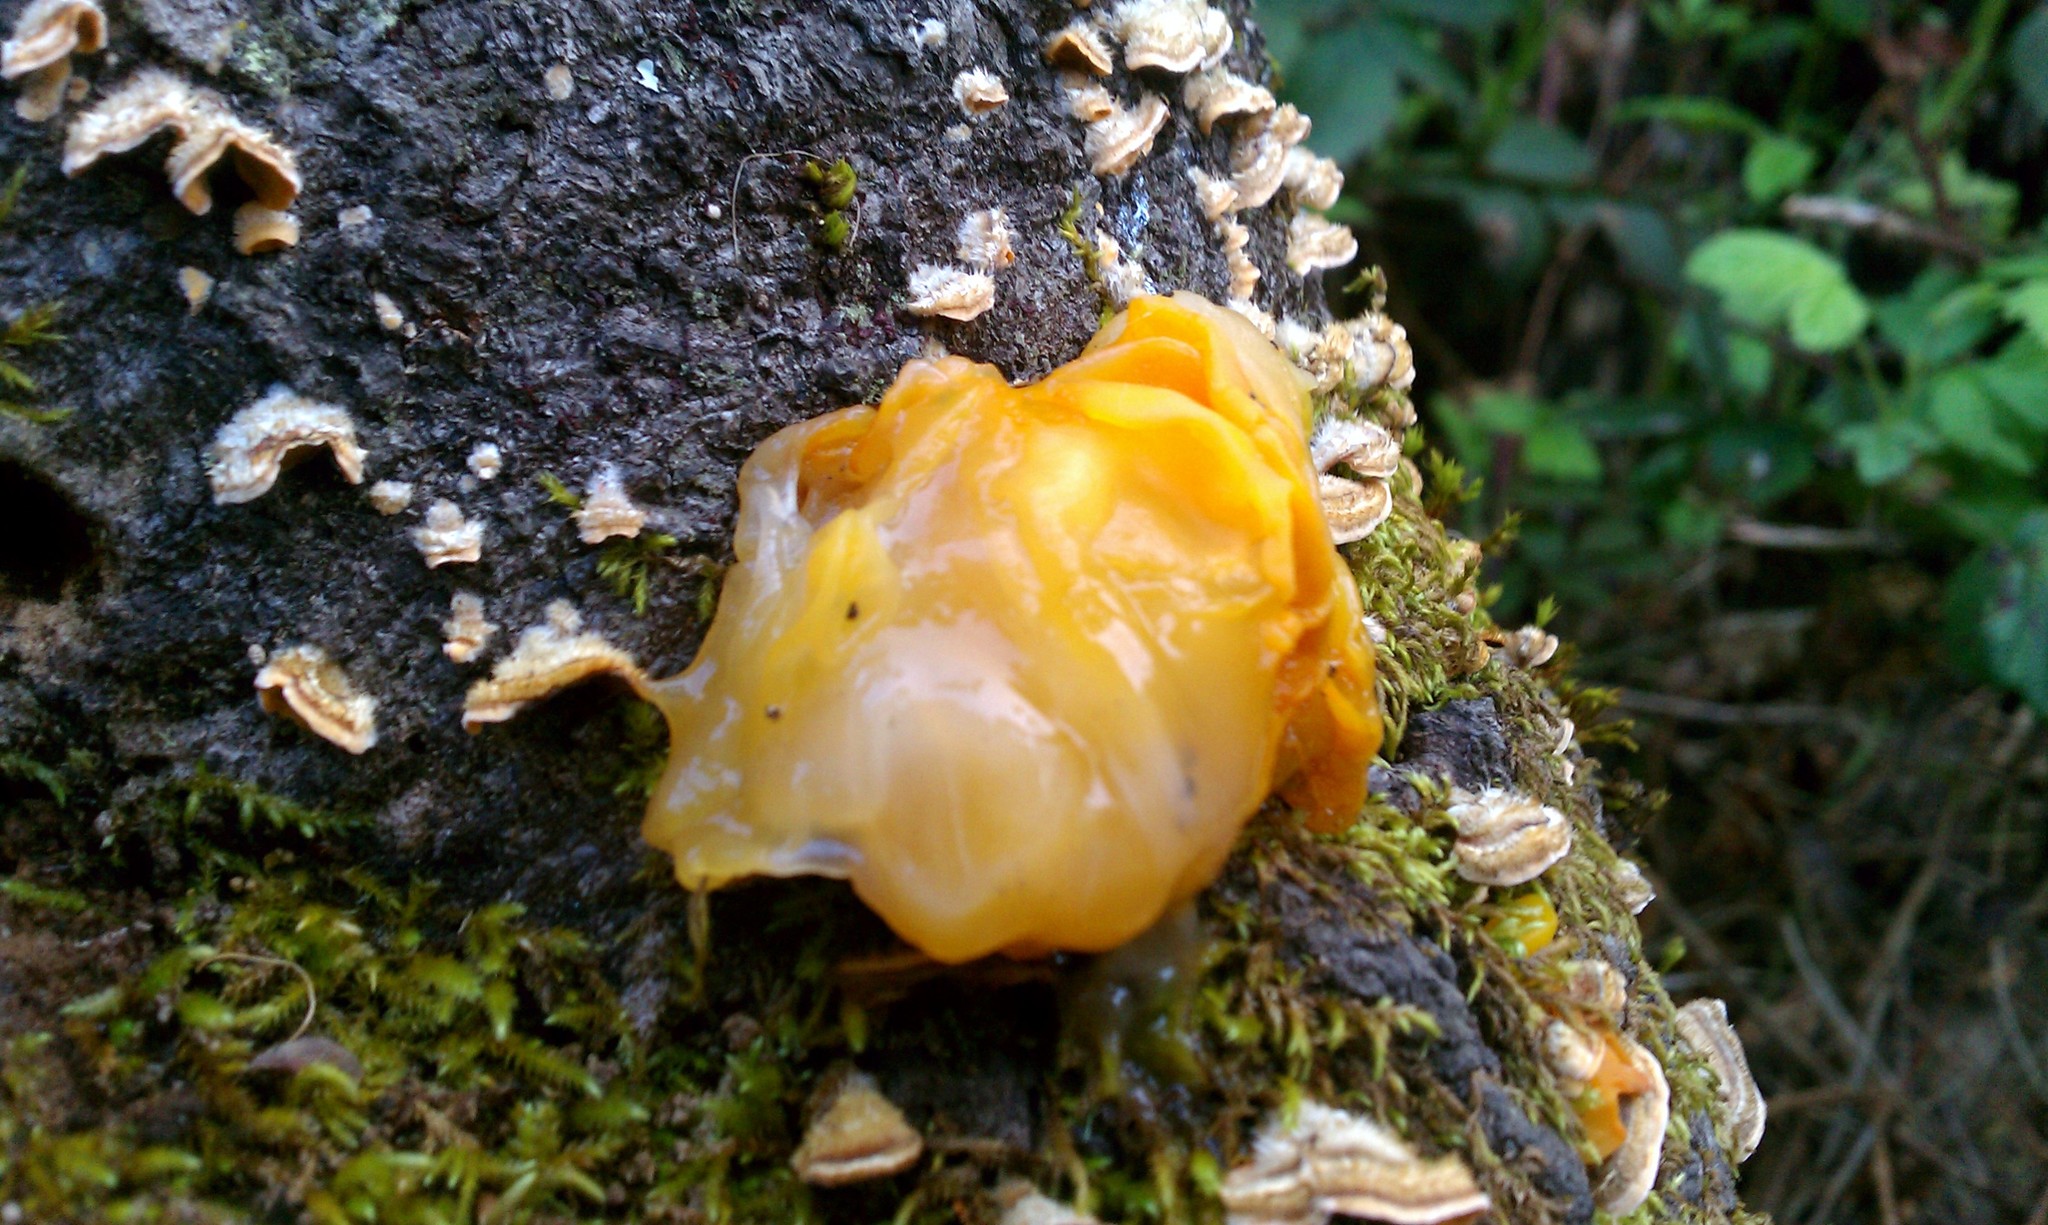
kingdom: Fungi
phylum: Basidiomycota
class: Tremellomycetes
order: Tremellales
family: Naemateliaceae
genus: Naematelia
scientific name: Naematelia aurantia
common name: Golden ear
